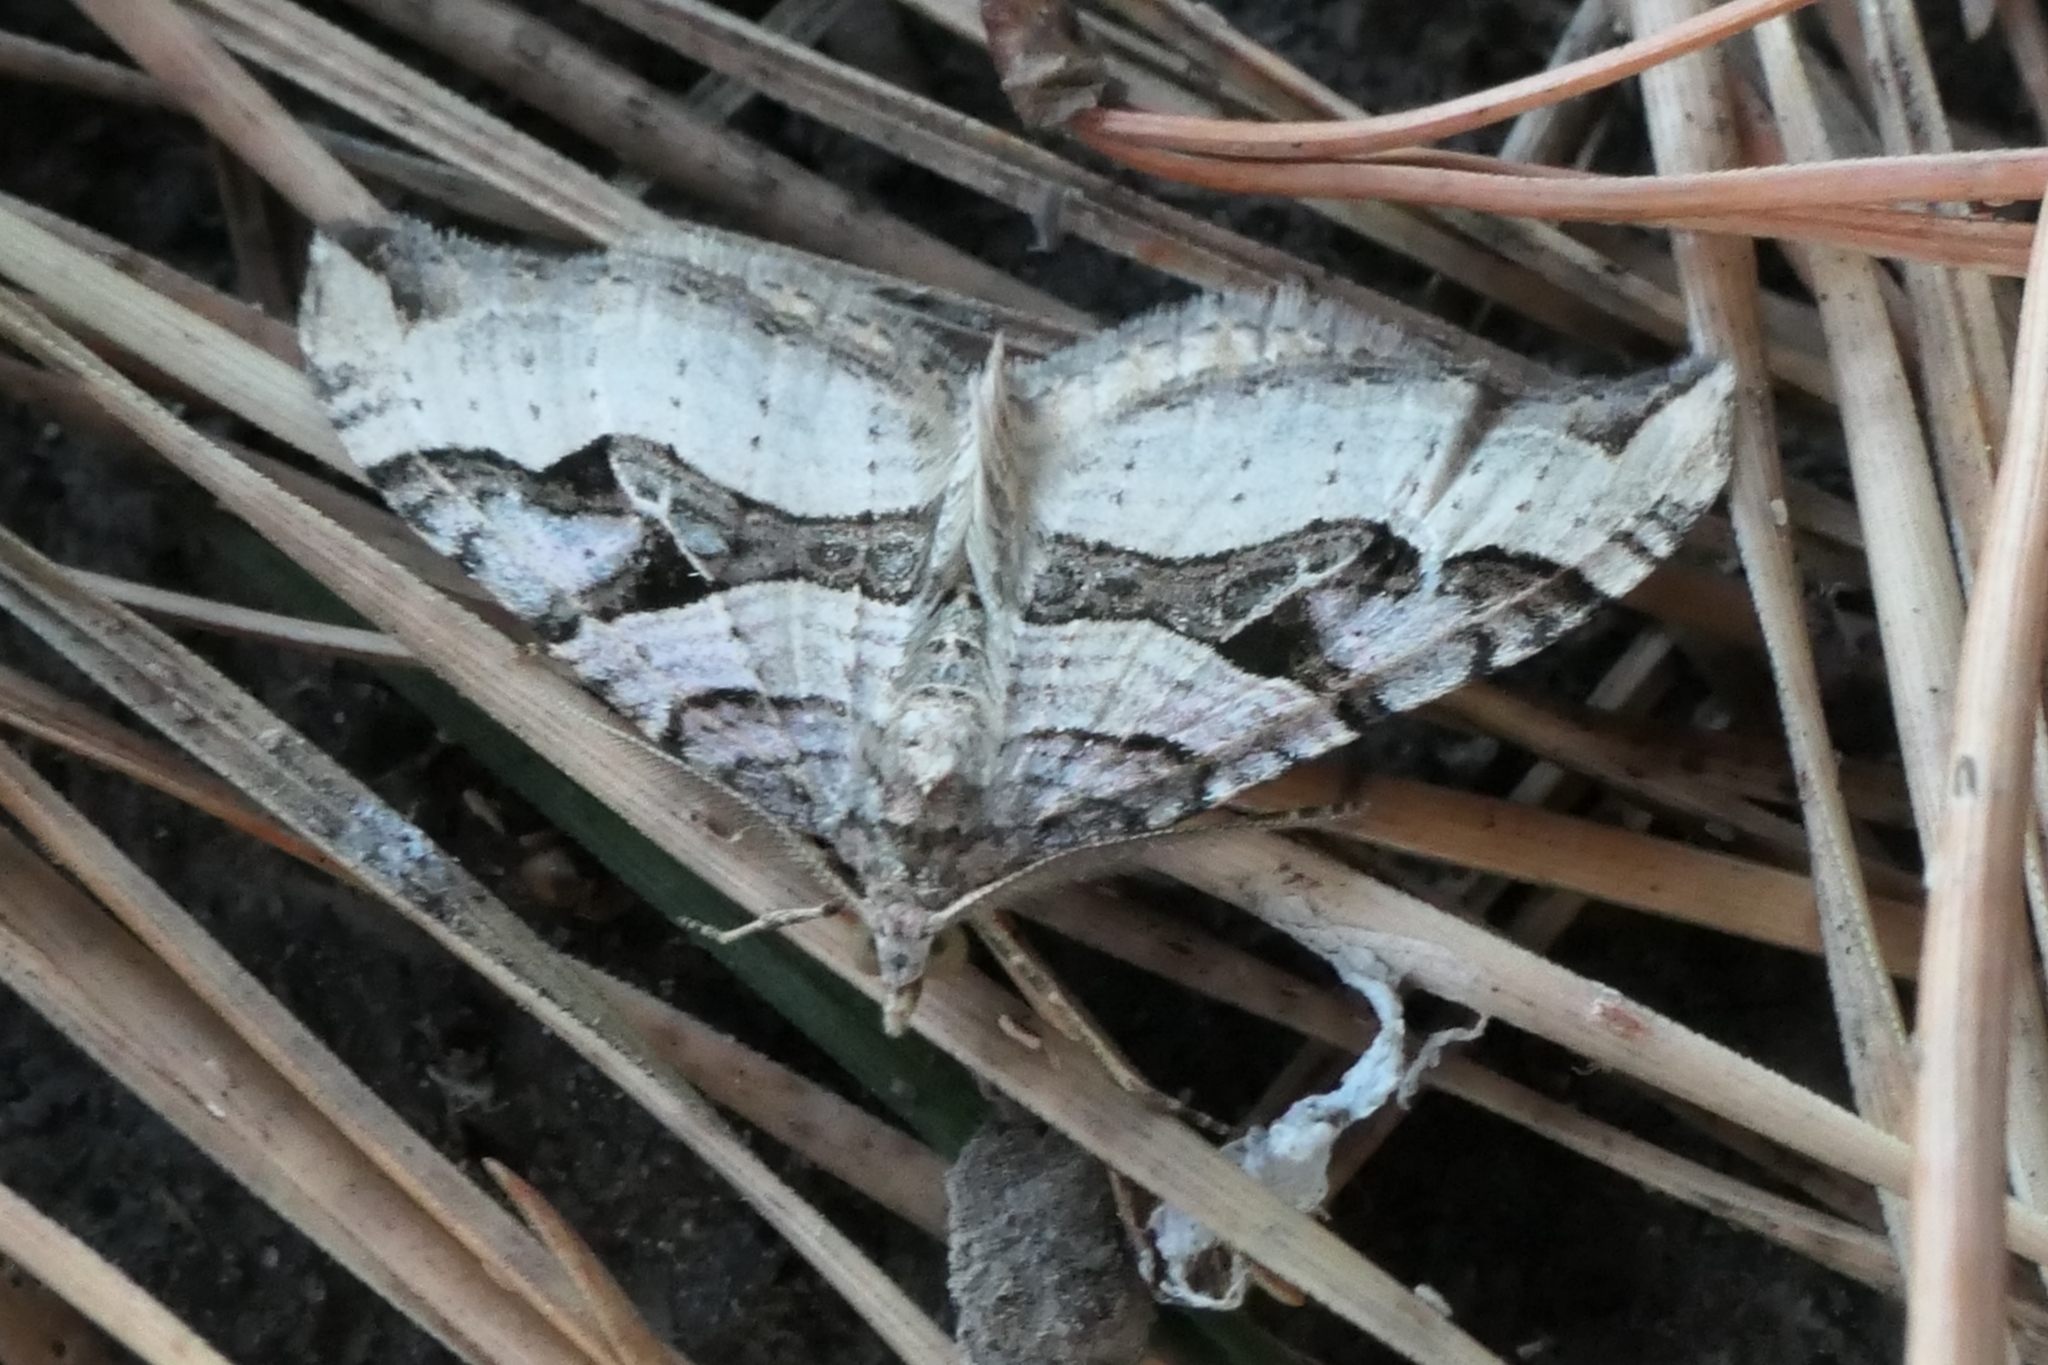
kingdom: Animalia
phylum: Arthropoda
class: Insecta
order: Lepidoptera
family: Geometridae
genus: Xanthorhoe
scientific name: Xanthorhoe semifissata
